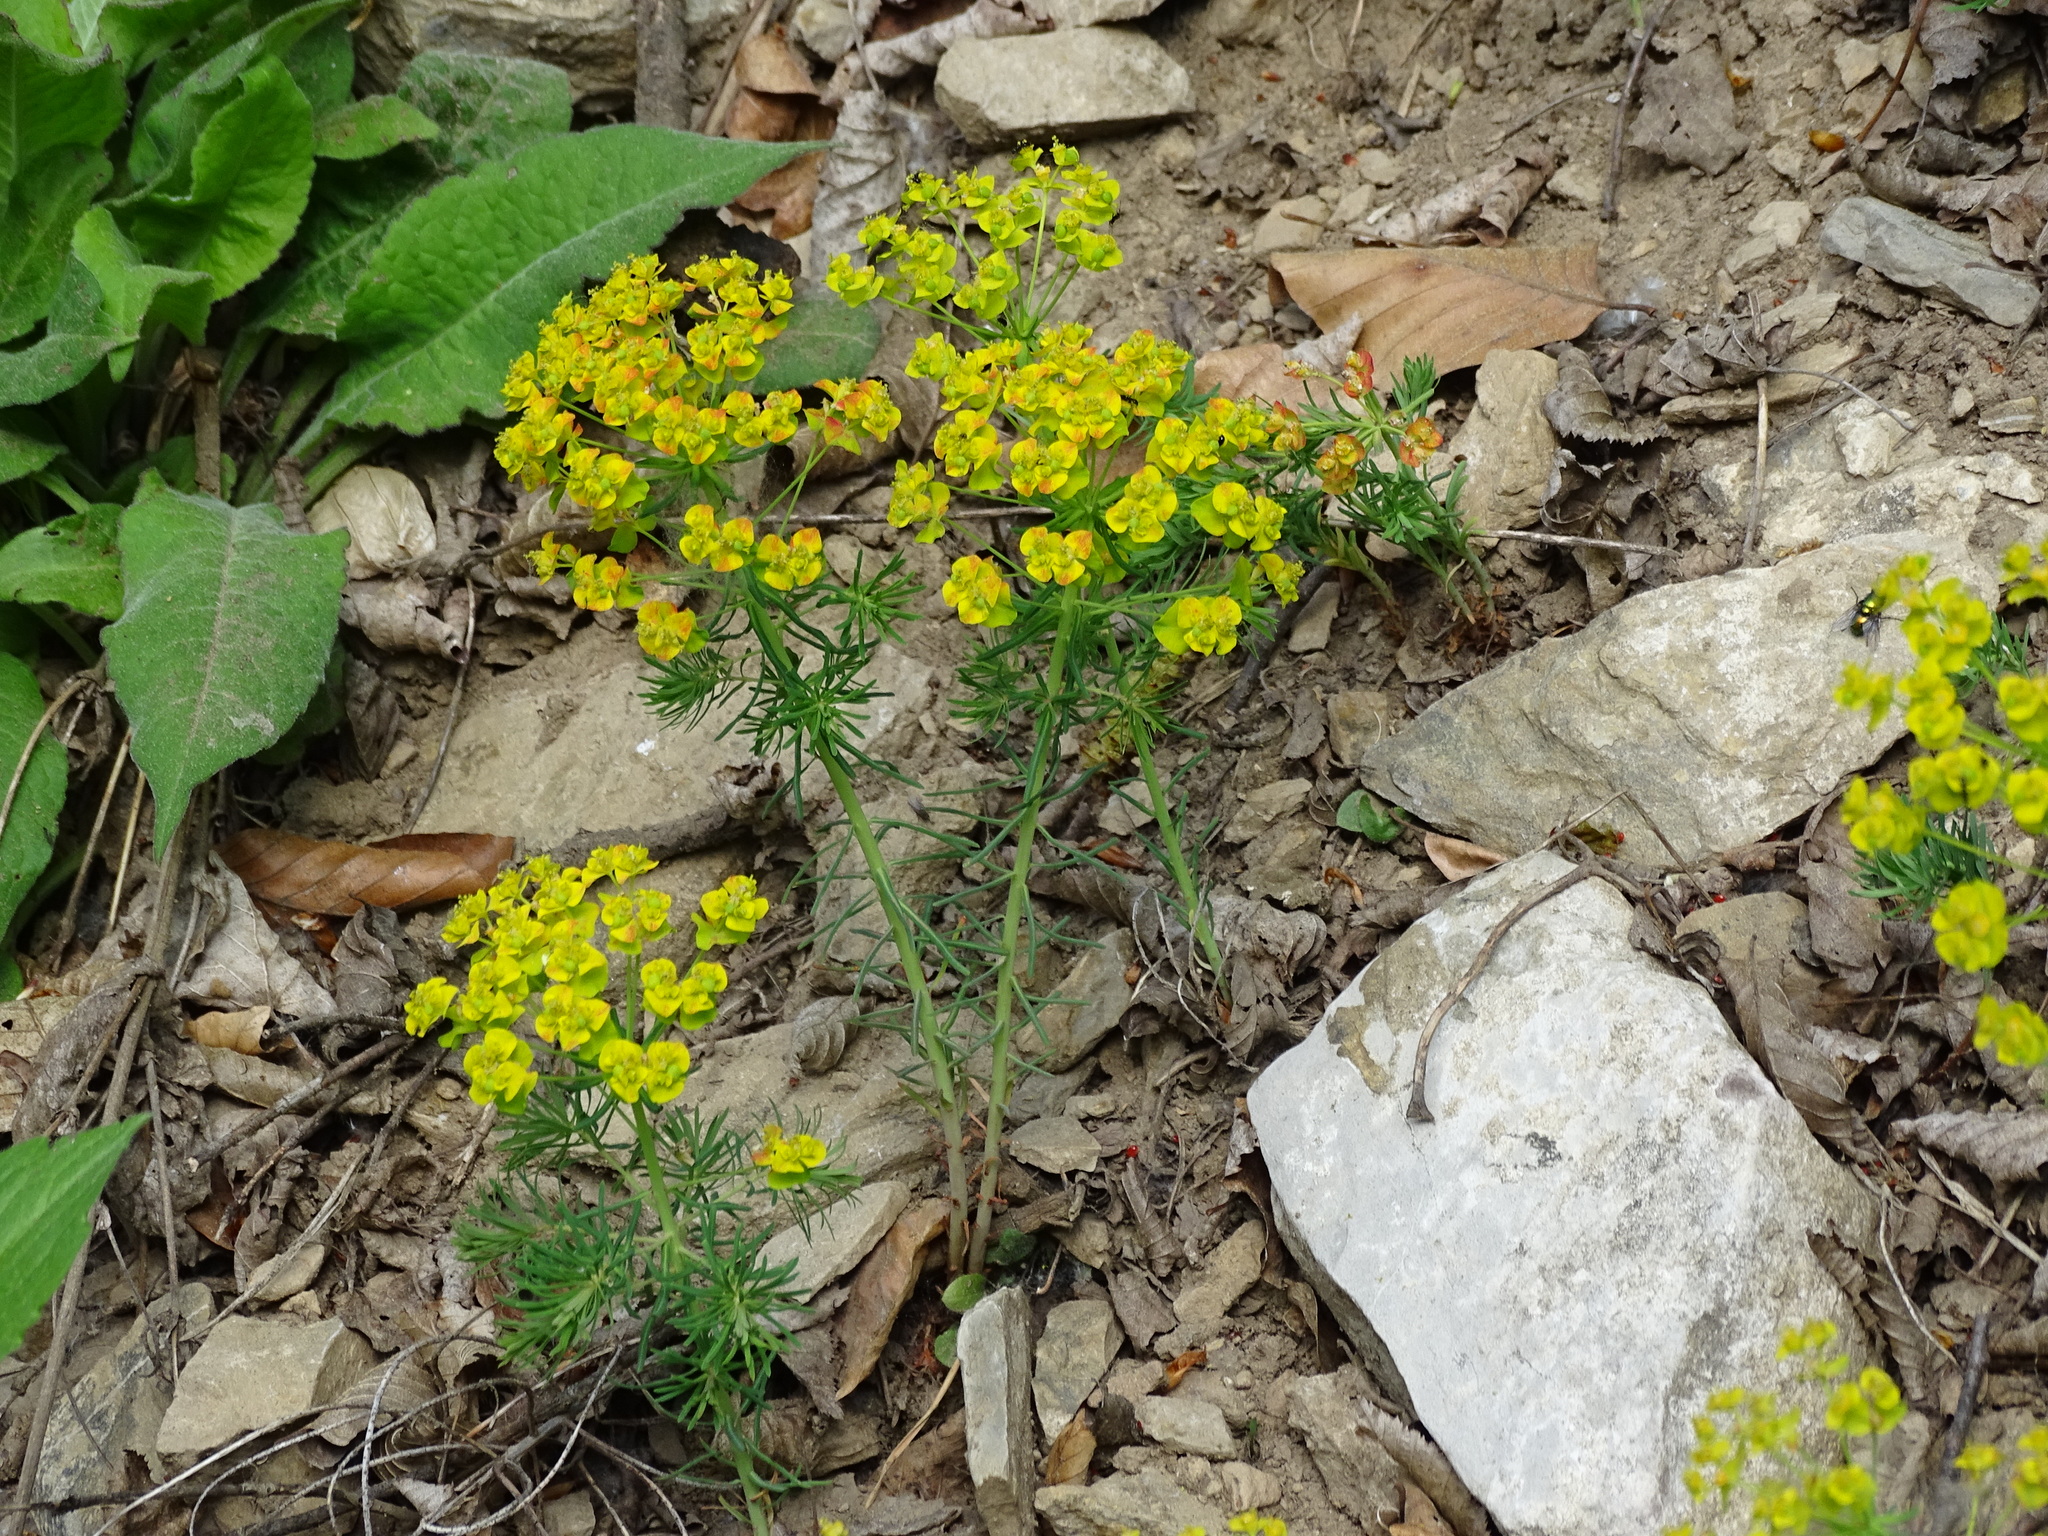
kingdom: Plantae
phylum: Tracheophyta
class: Magnoliopsida
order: Malpighiales
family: Euphorbiaceae
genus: Euphorbia
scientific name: Euphorbia cyparissias
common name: Cypress spurge
